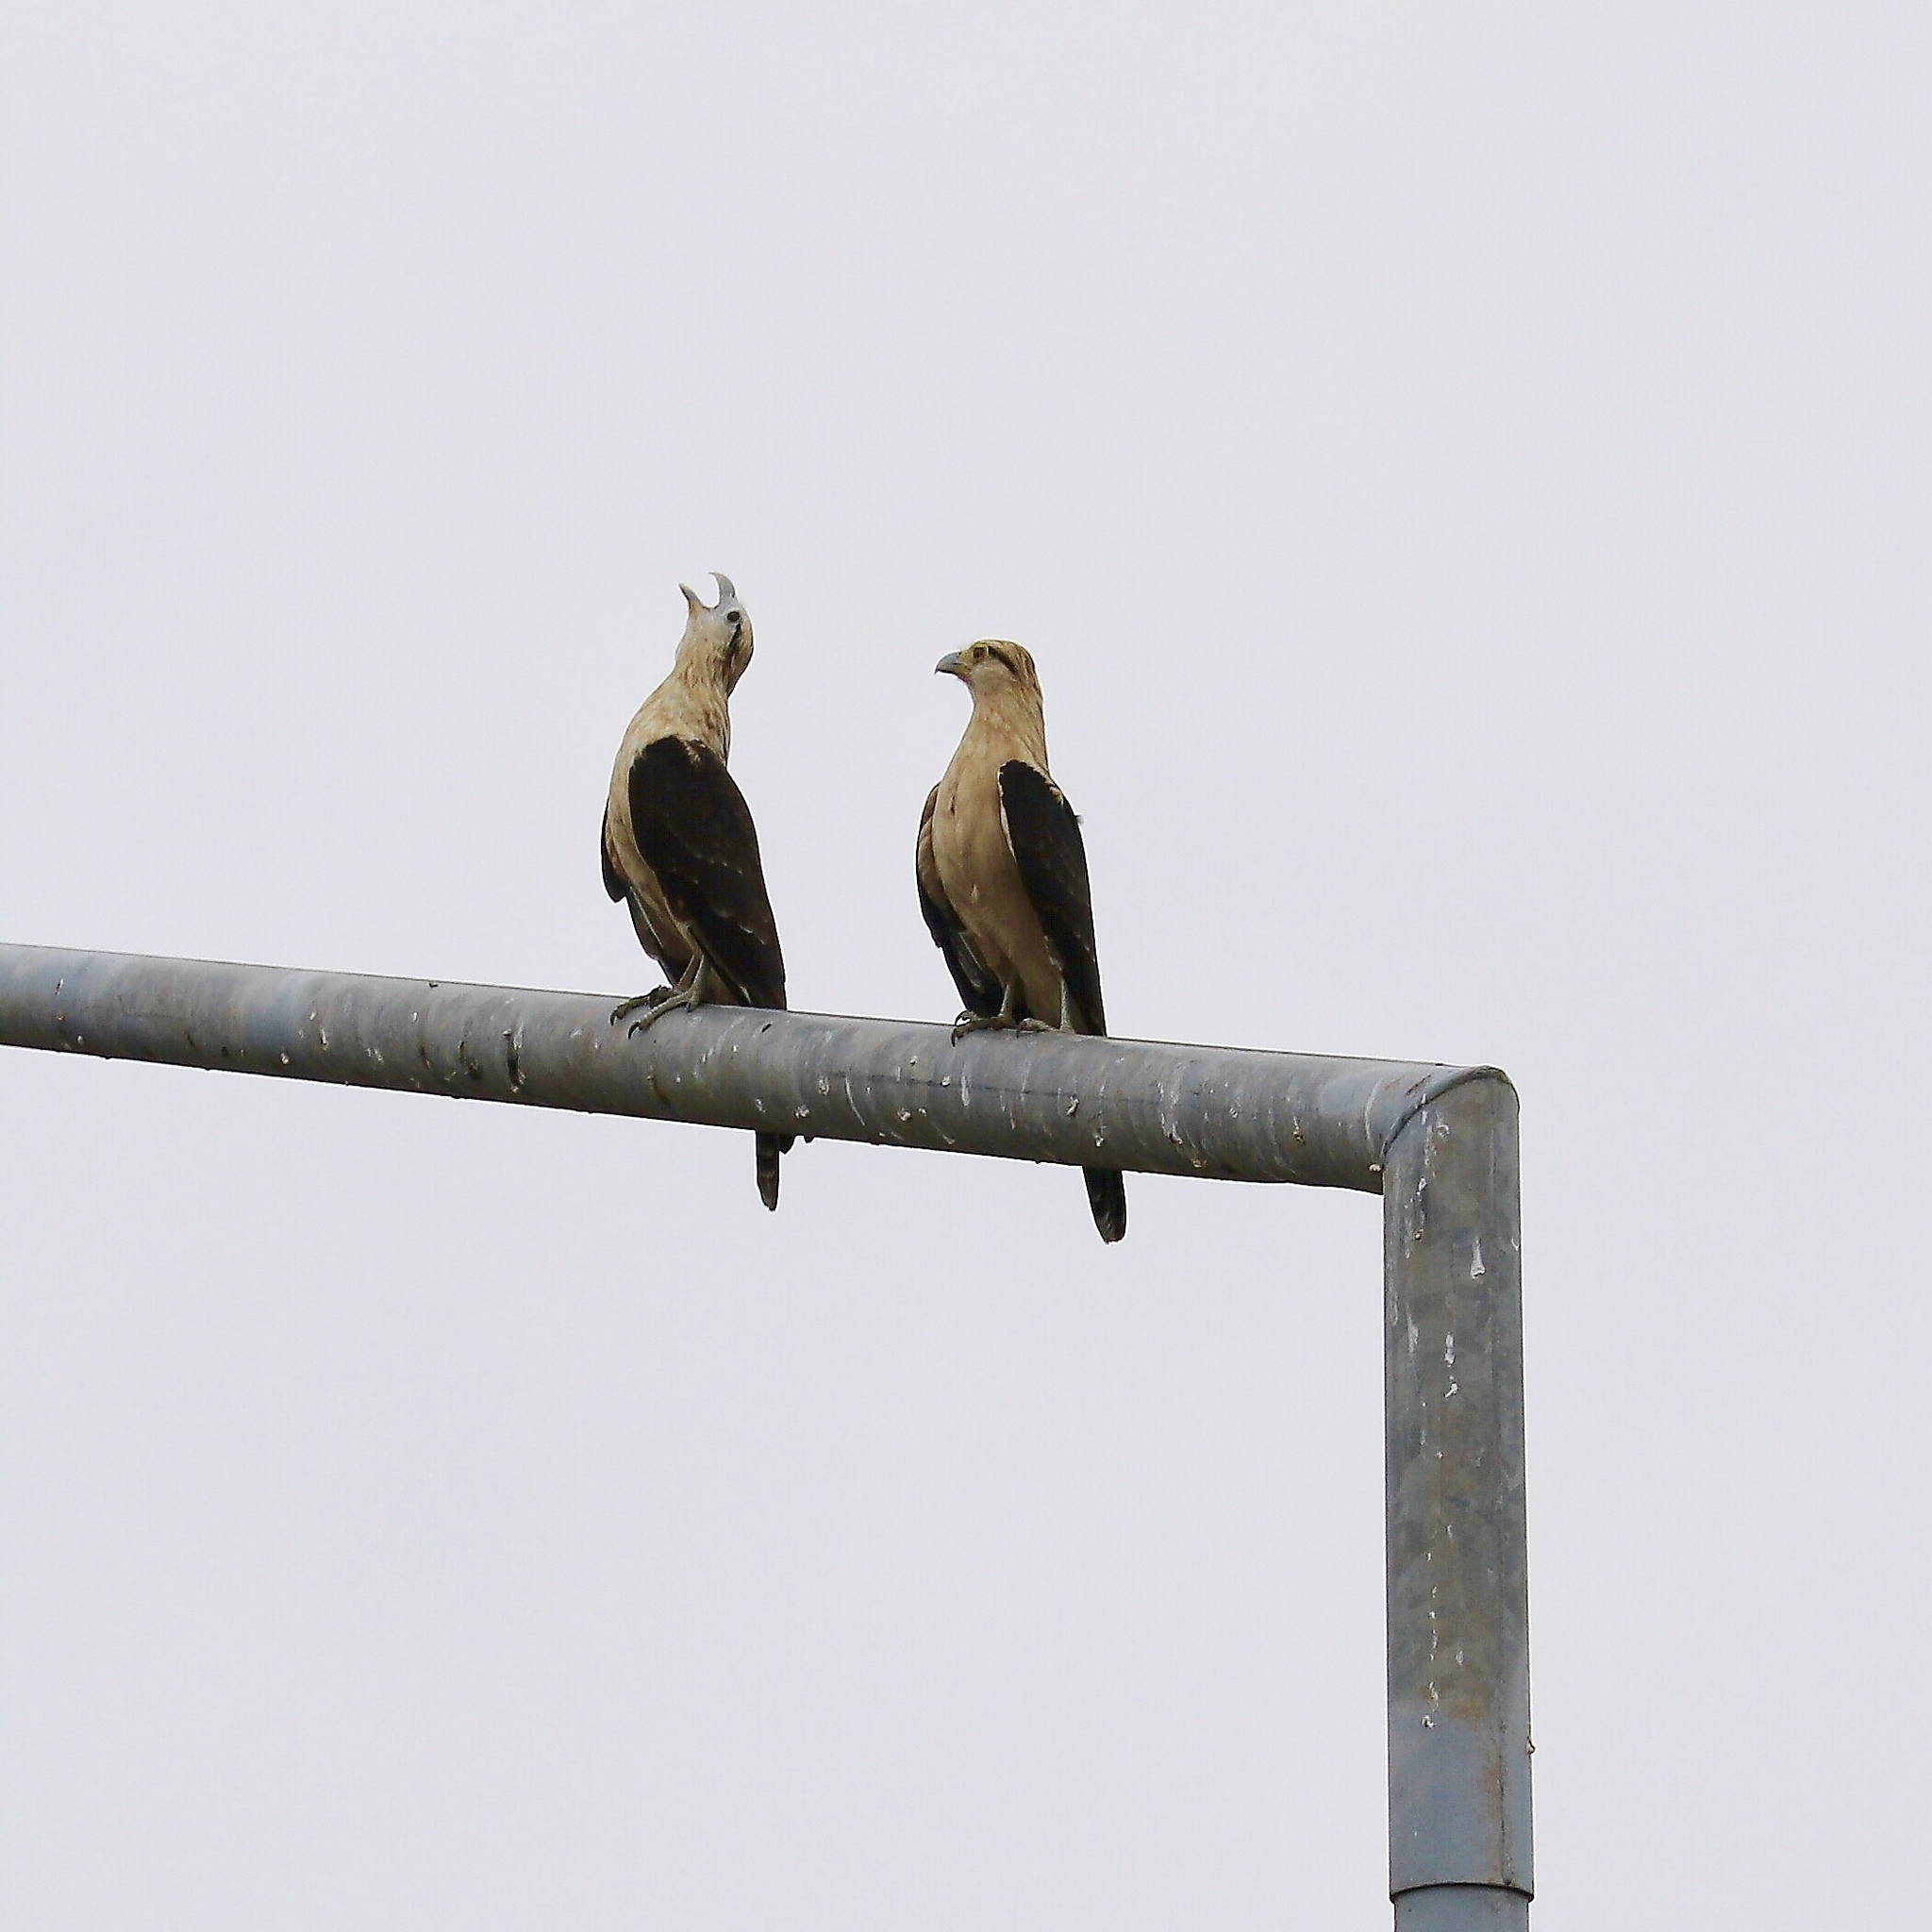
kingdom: Animalia
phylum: Chordata
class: Aves
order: Falconiformes
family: Falconidae
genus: Daptrius
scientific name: Daptrius
